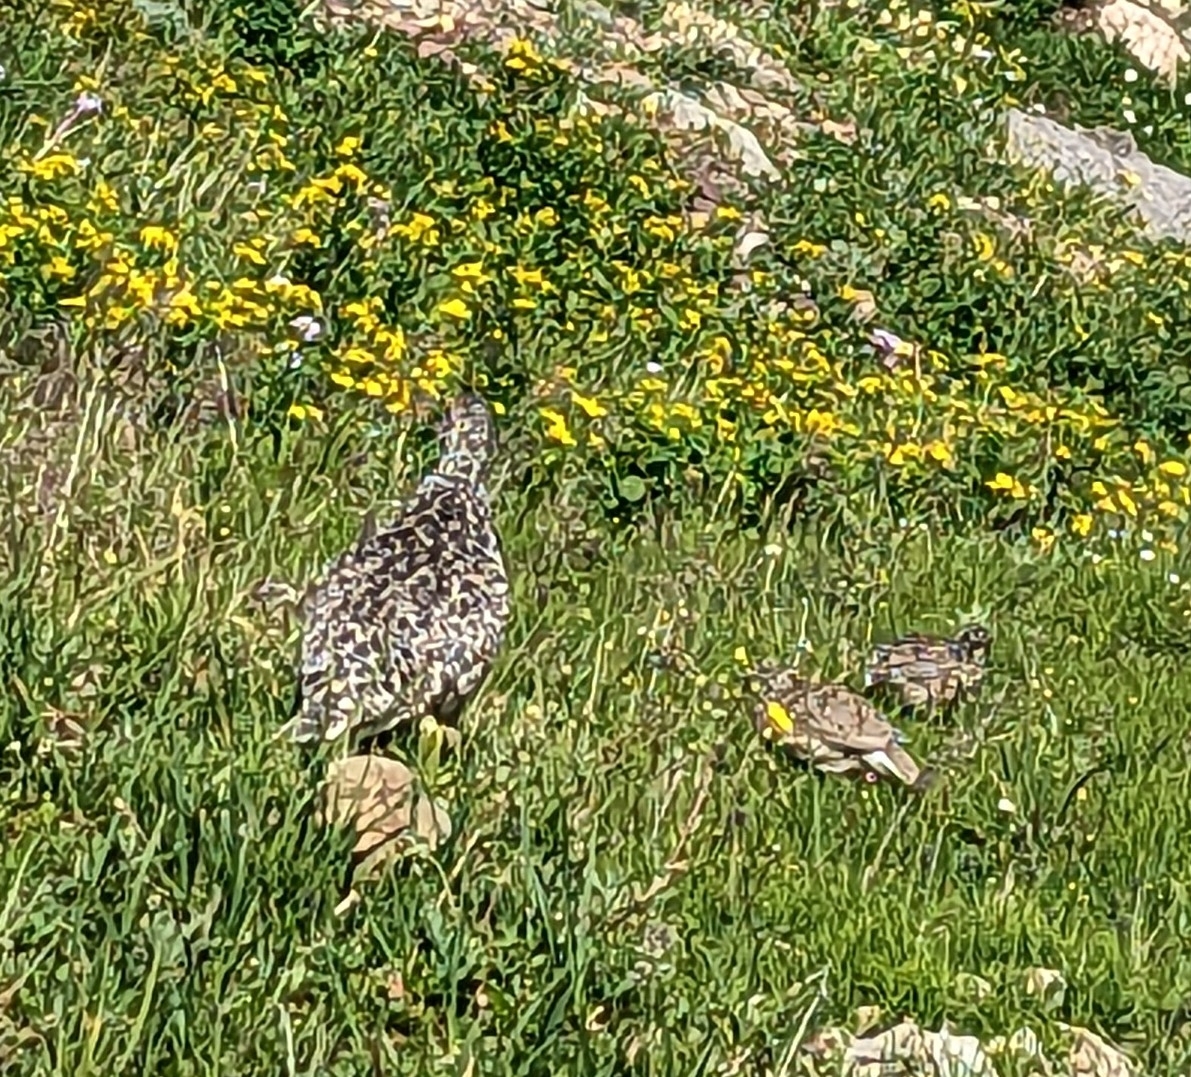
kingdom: Animalia
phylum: Chordata
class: Aves
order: Galliformes
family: Phasianidae
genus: Lagopus
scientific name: Lagopus leucura
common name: White-tailed ptarmigan
